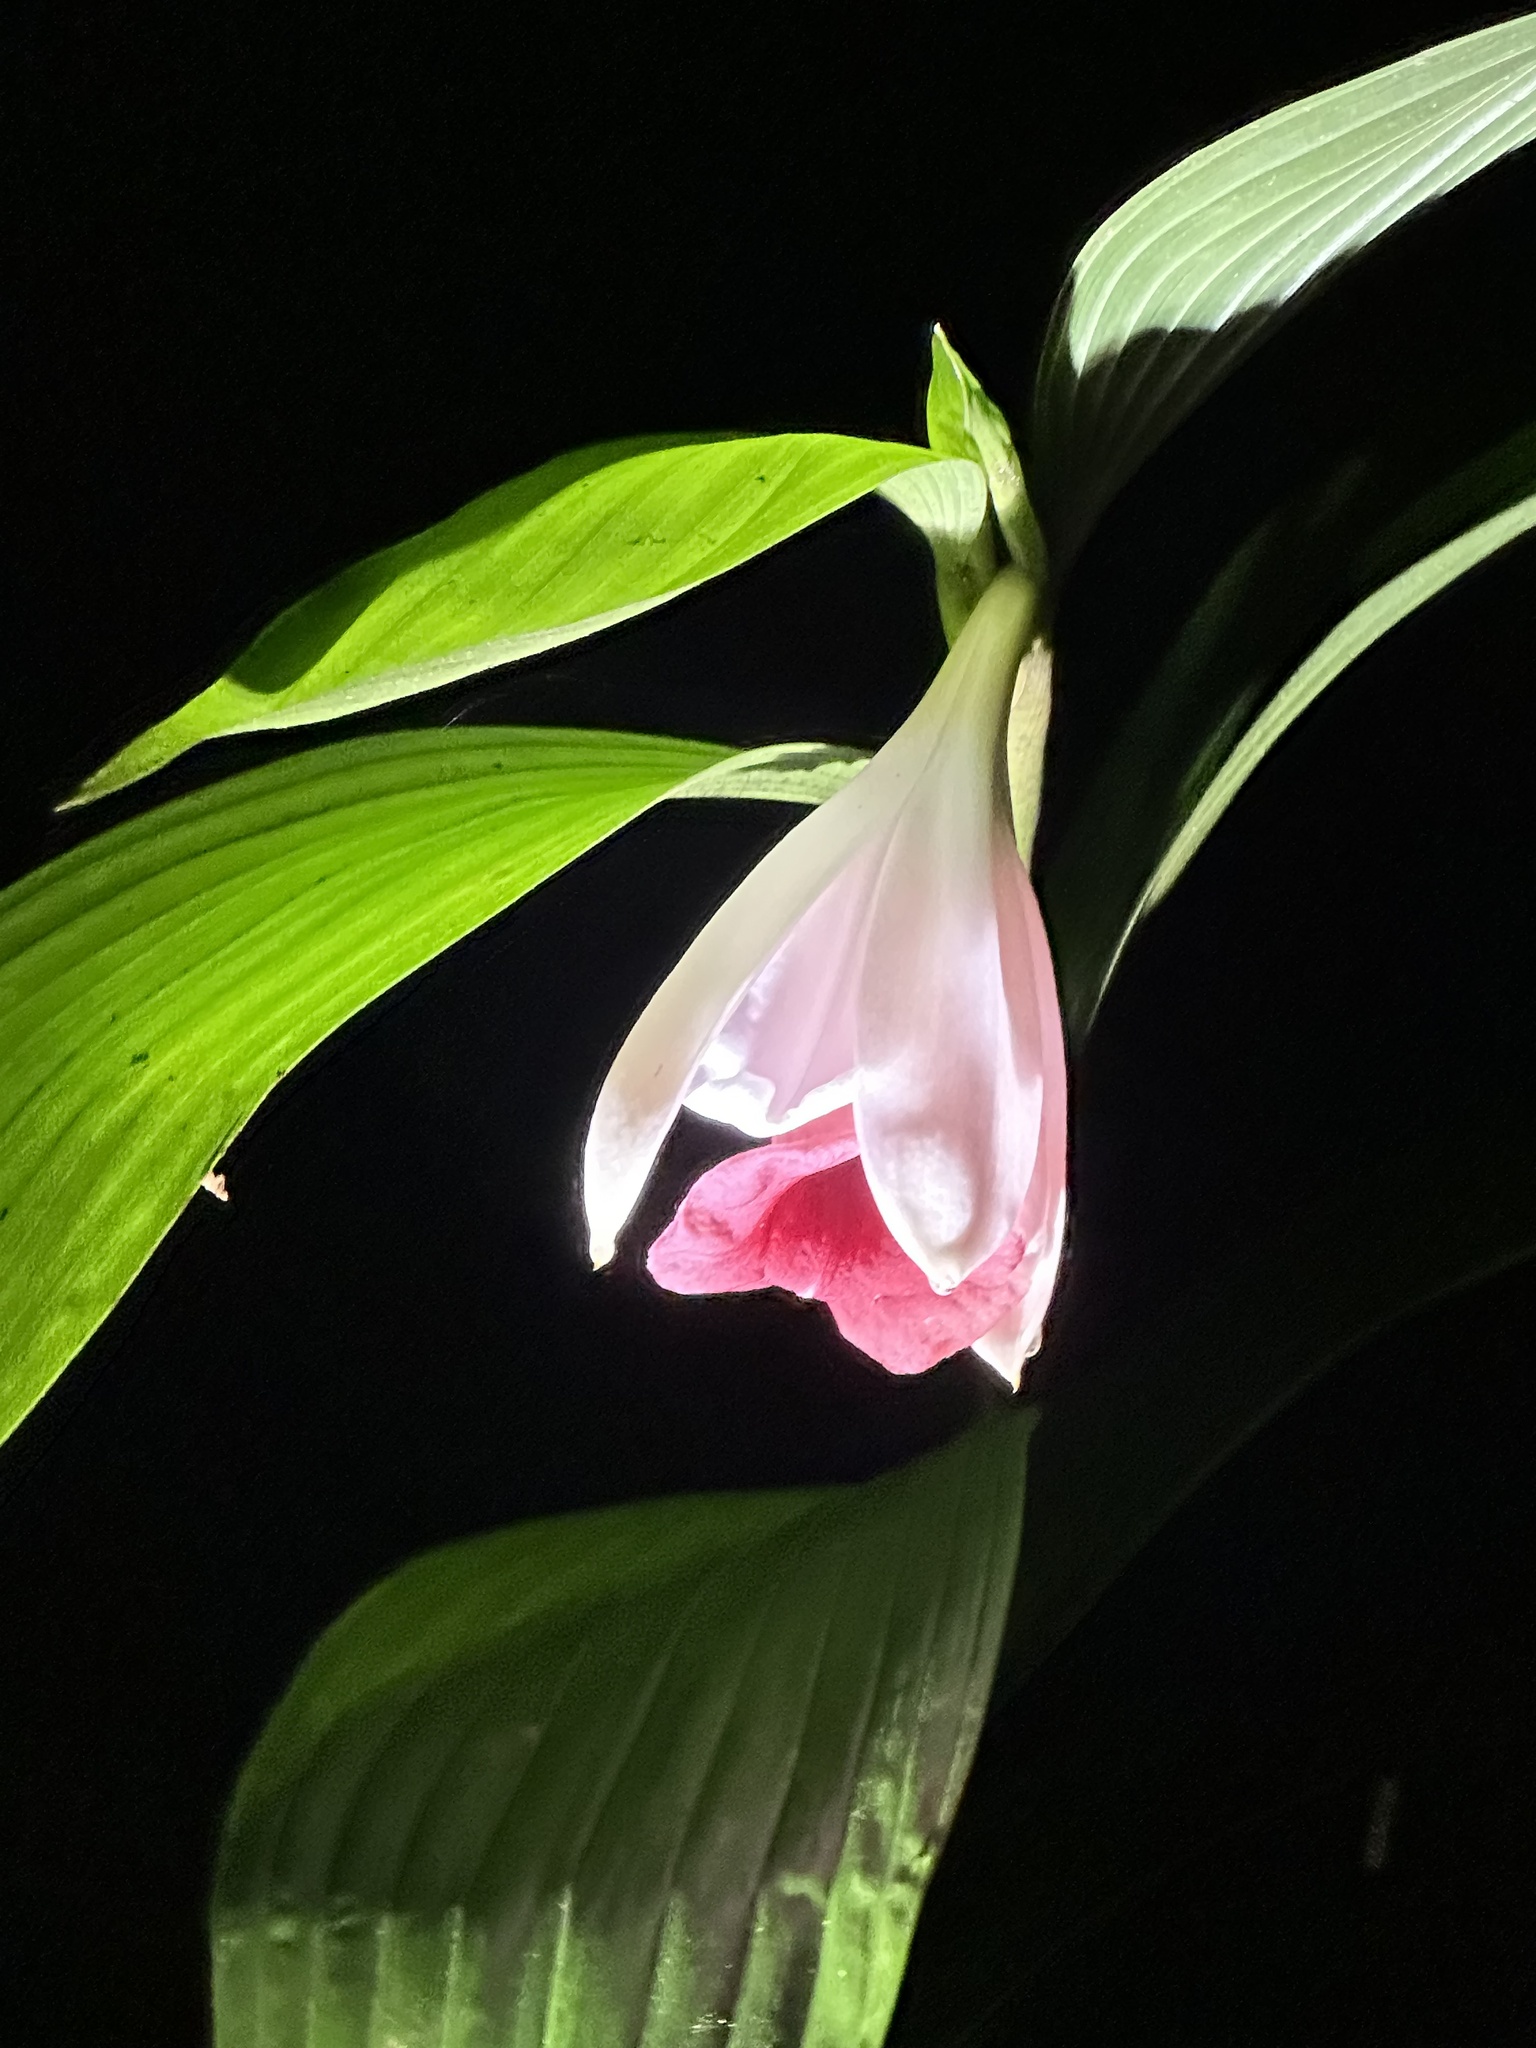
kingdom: Plantae
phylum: Tracheophyta
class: Liliopsida
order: Asparagales
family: Orchidaceae
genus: Sobralia
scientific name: Sobralia helleri
